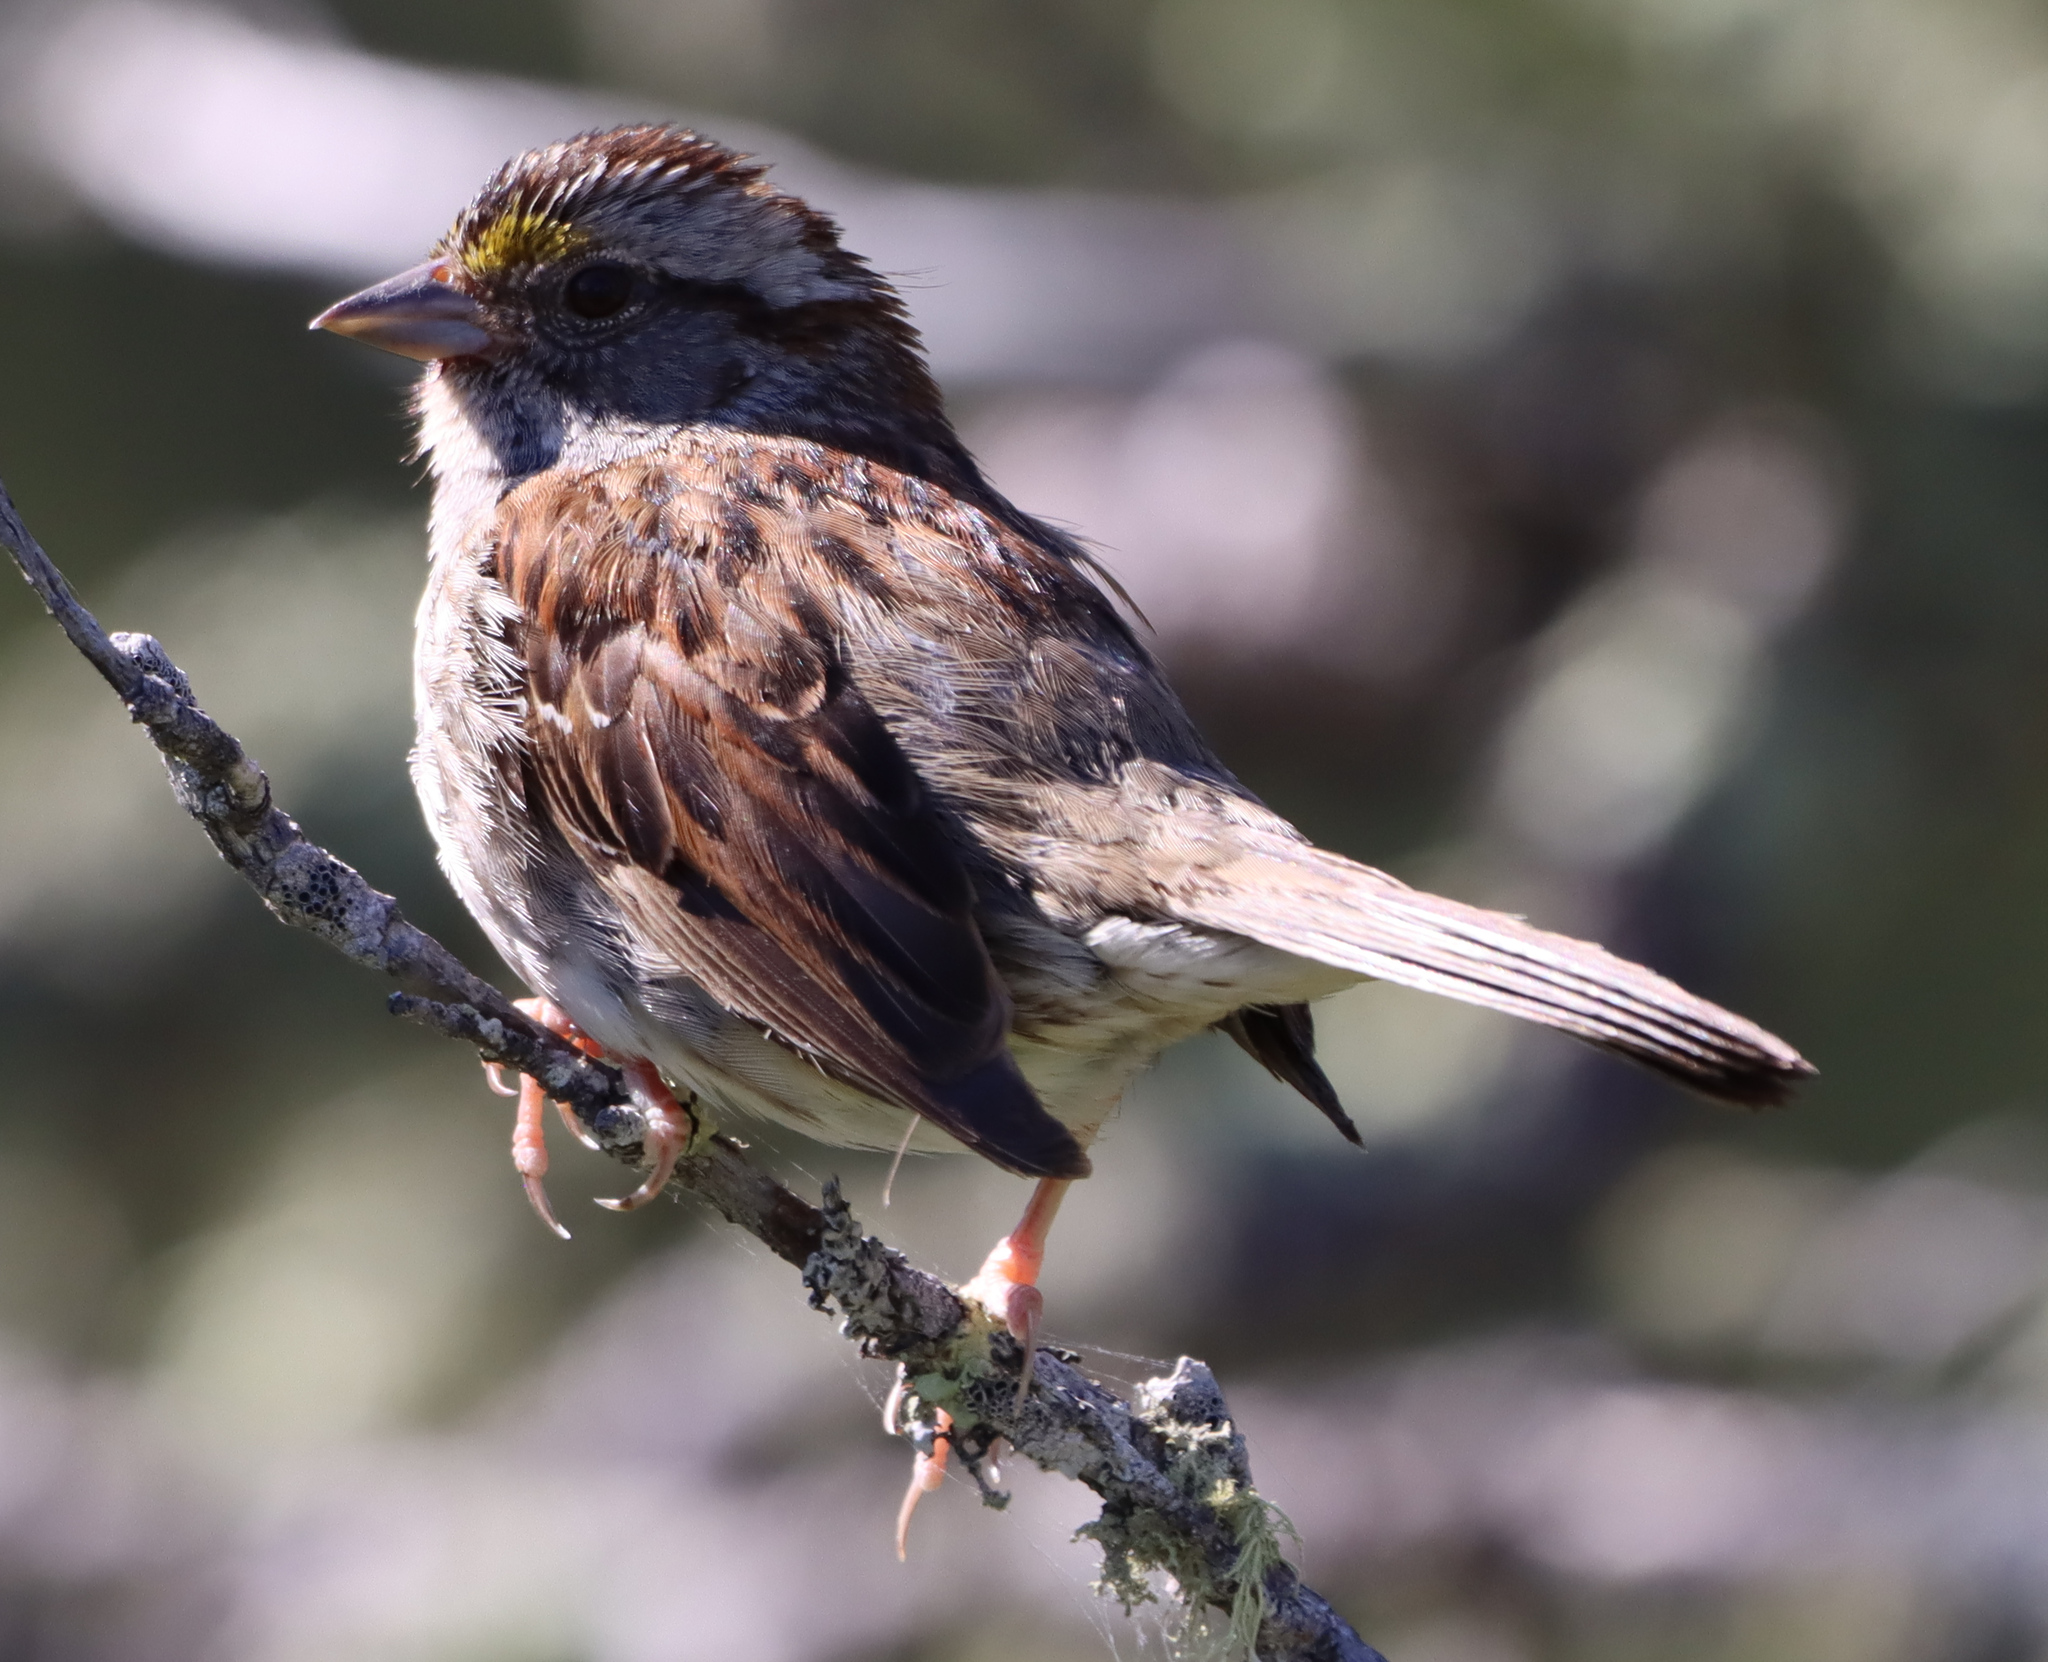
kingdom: Animalia
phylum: Chordata
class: Aves
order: Passeriformes
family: Passerellidae
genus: Zonotrichia
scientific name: Zonotrichia albicollis
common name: White-throated sparrow
